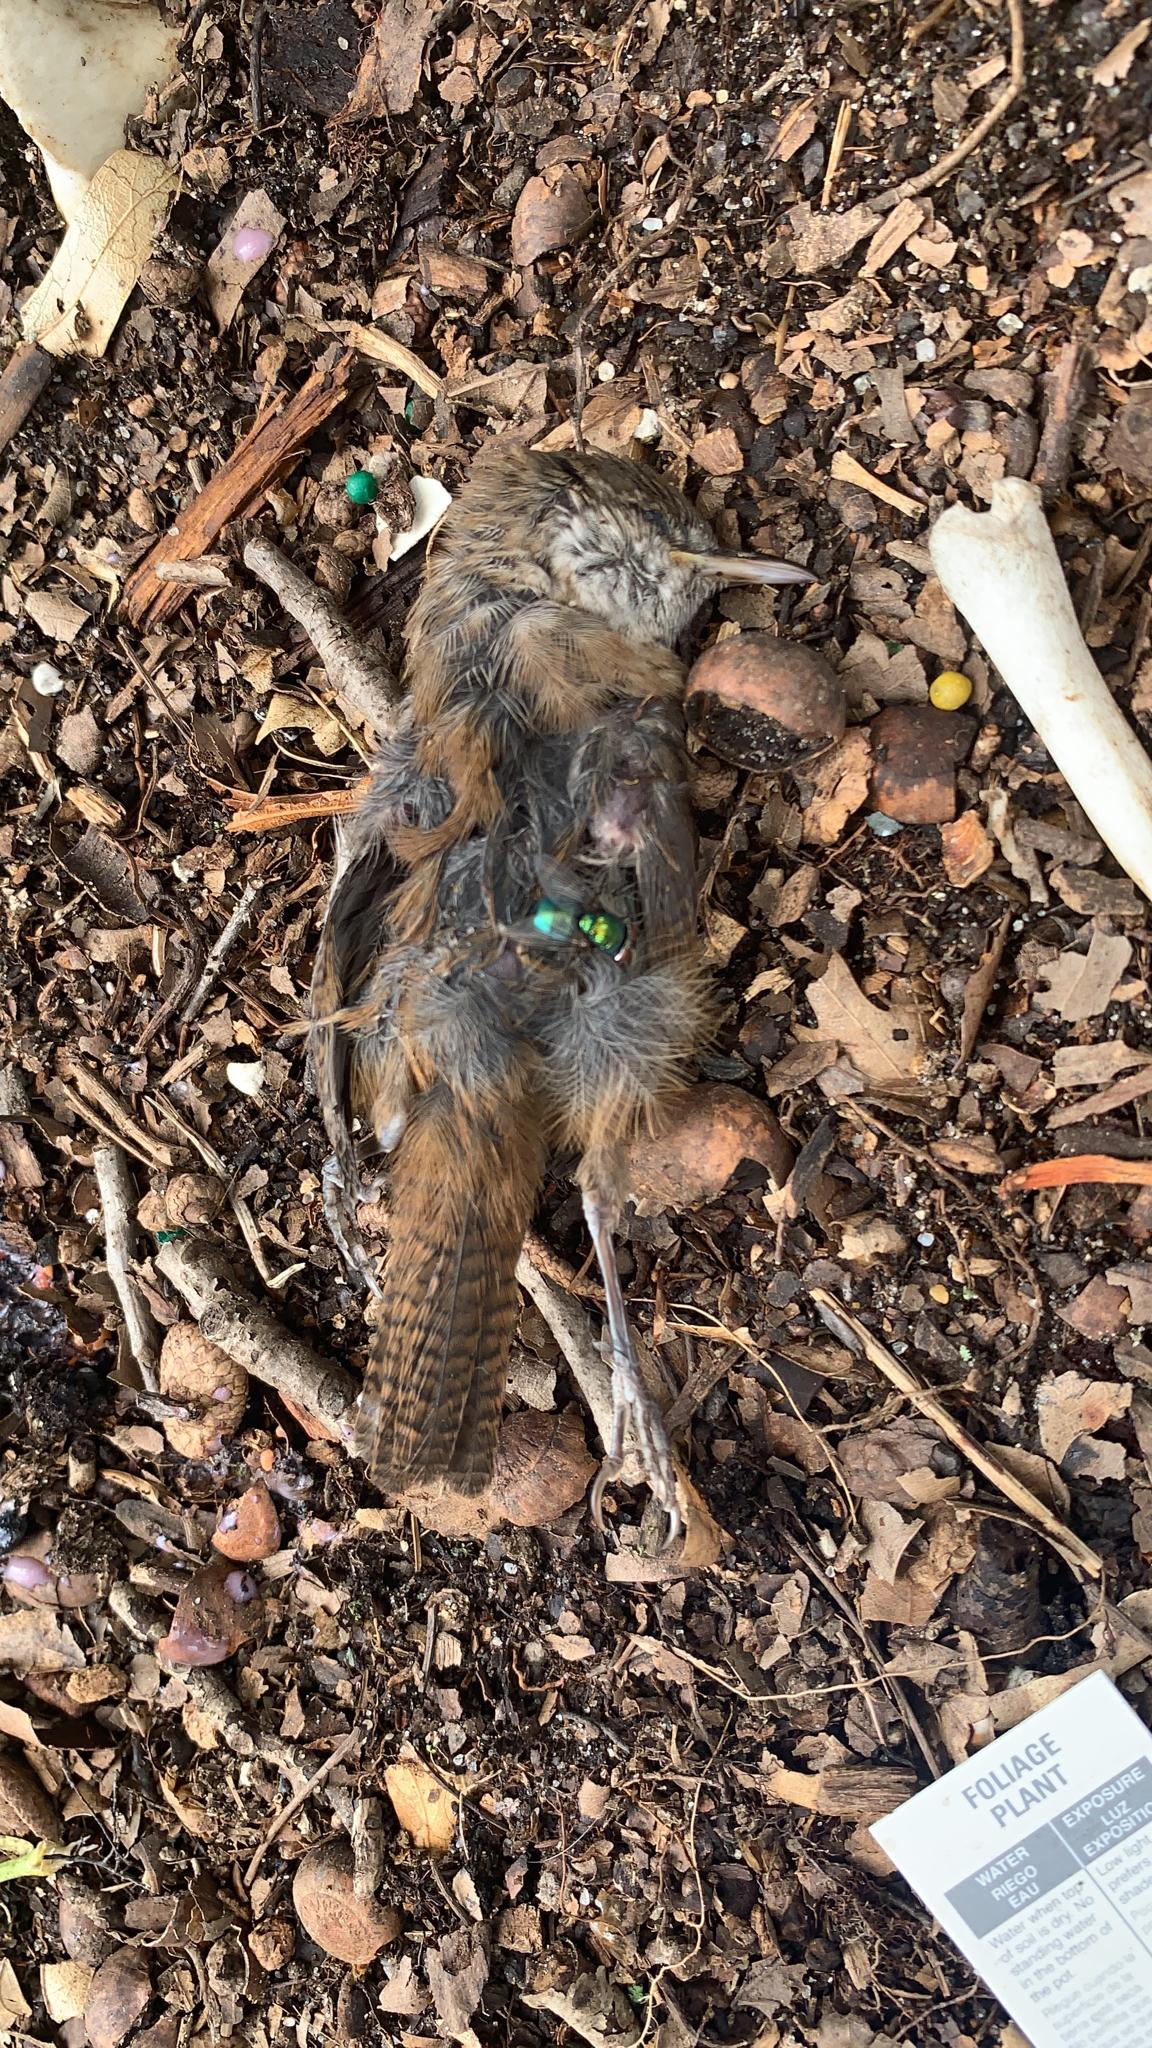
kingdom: Animalia
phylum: Chordata
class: Aves
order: Passeriformes
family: Troglodytidae
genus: Thryothorus
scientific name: Thryothorus ludovicianus
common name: Carolina wren
